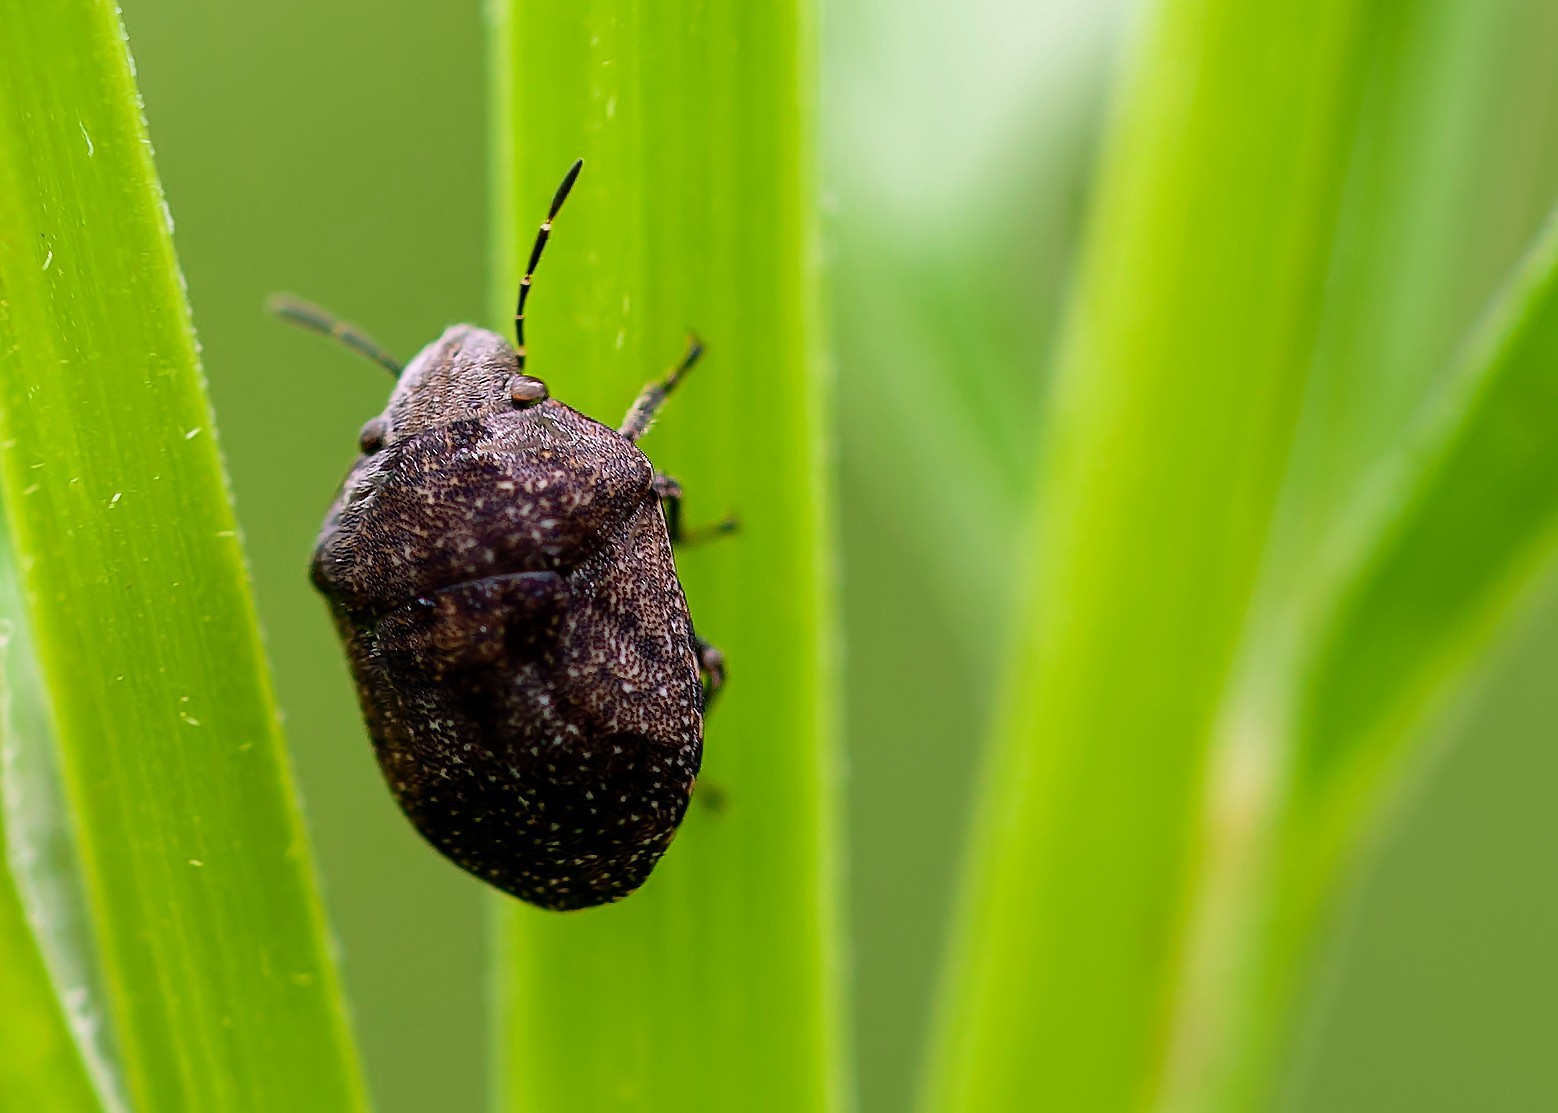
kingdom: Animalia
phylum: Arthropoda
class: Insecta
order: Hemiptera
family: Scutelleridae
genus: Homaemus
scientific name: Homaemus variegatus
